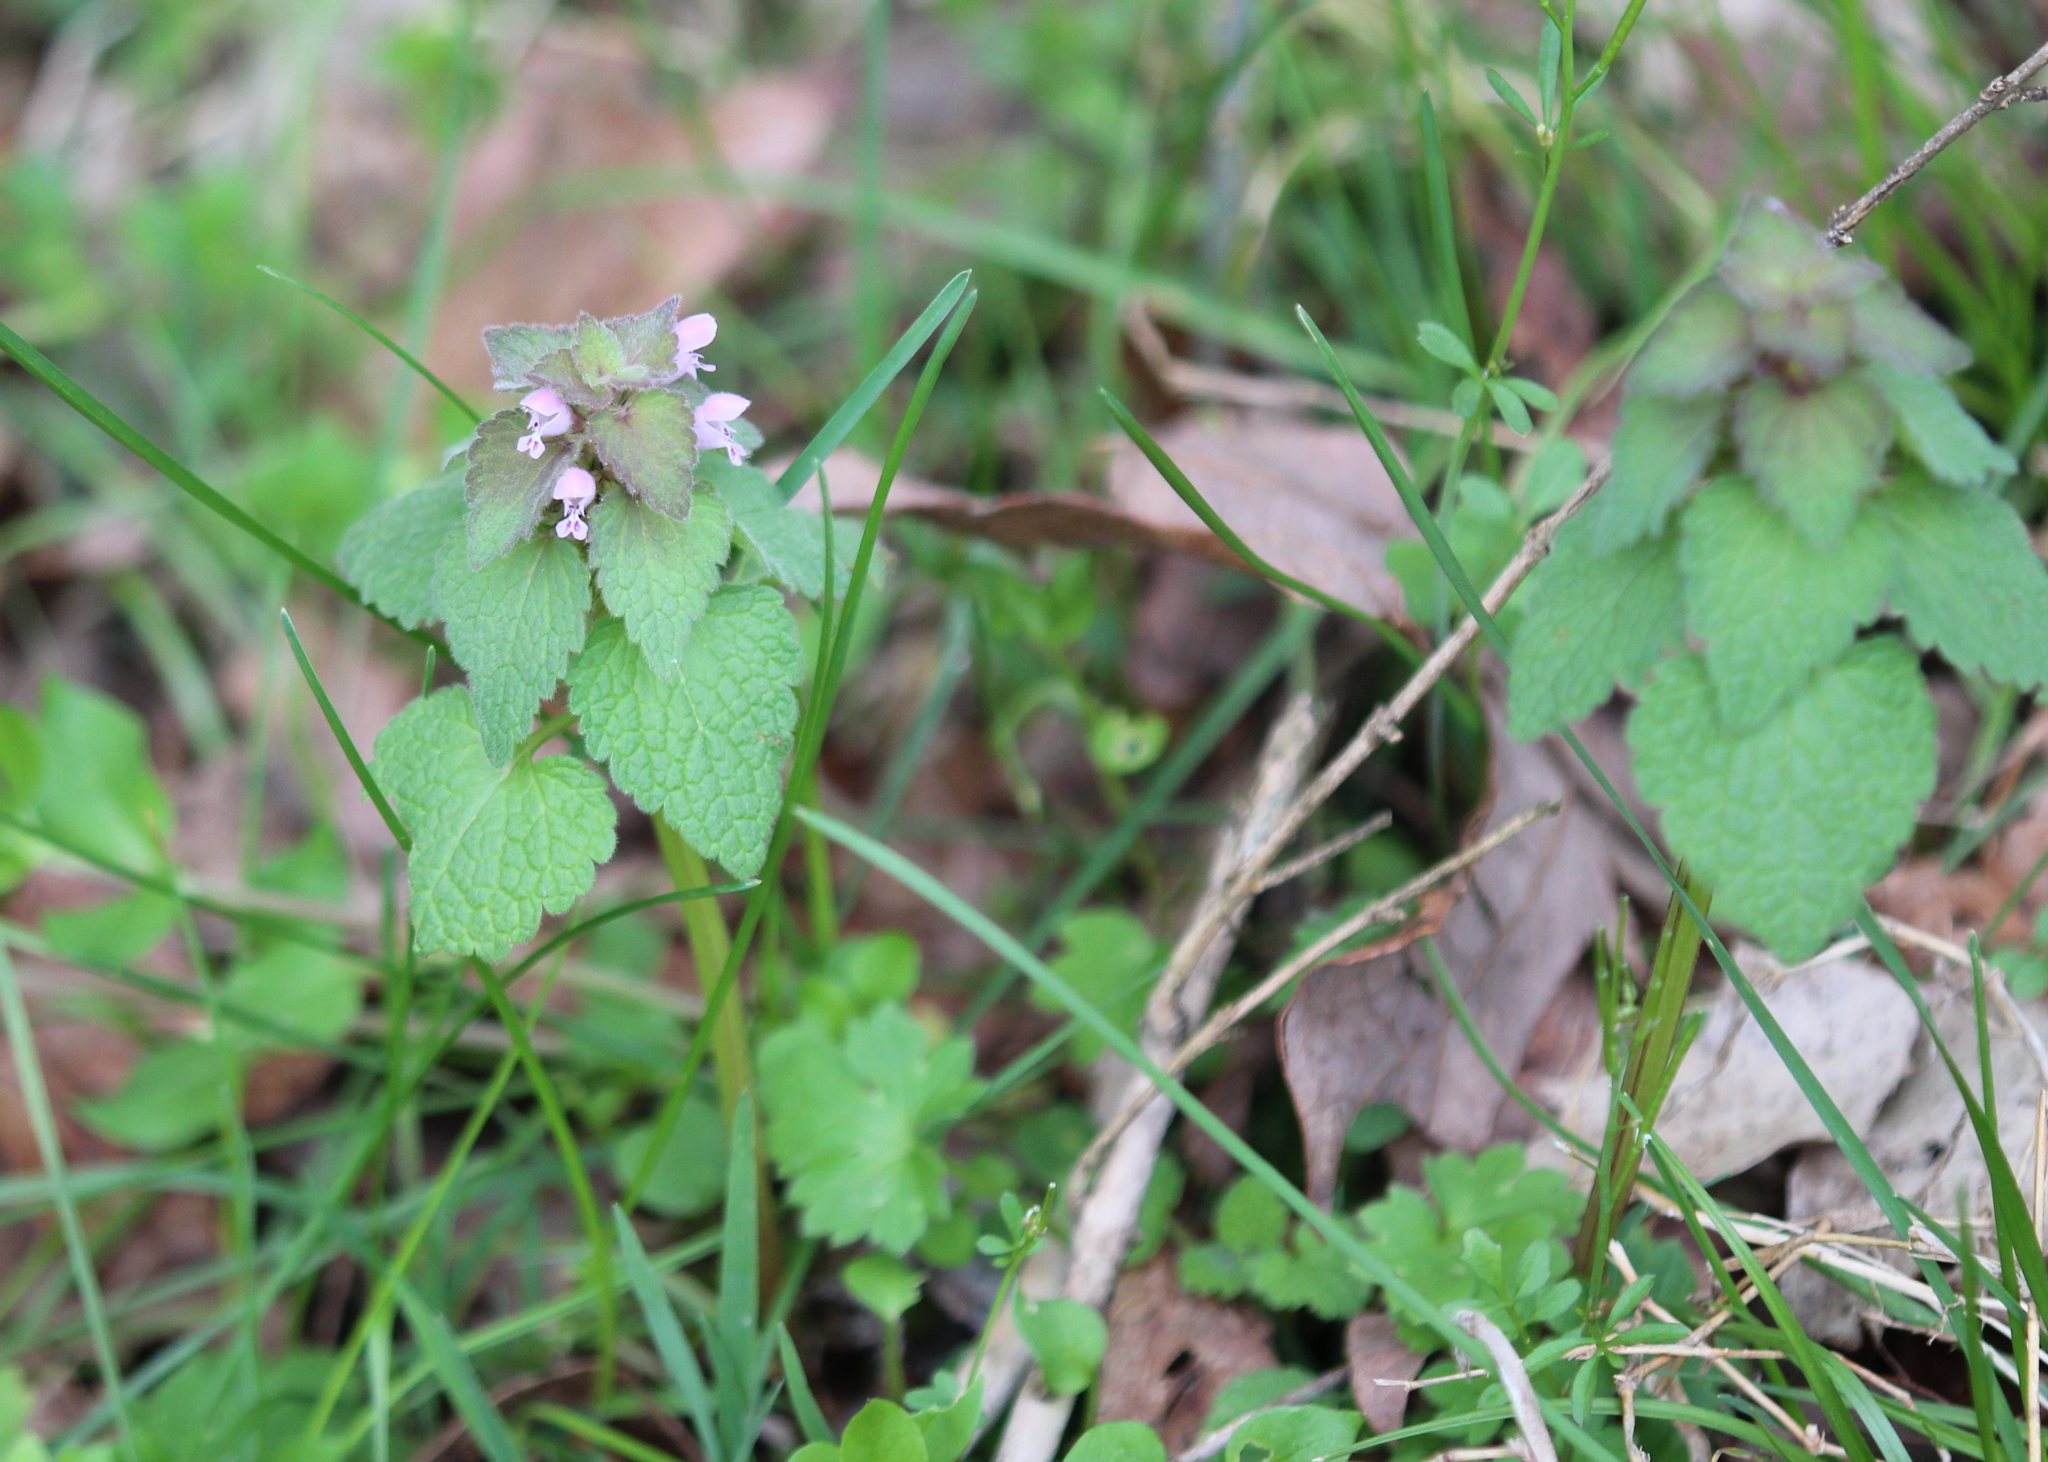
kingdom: Plantae
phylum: Tracheophyta
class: Magnoliopsida
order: Lamiales
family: Lamiaceae
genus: Lamium
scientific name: Lamium purpureum
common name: Red dead-nettle
